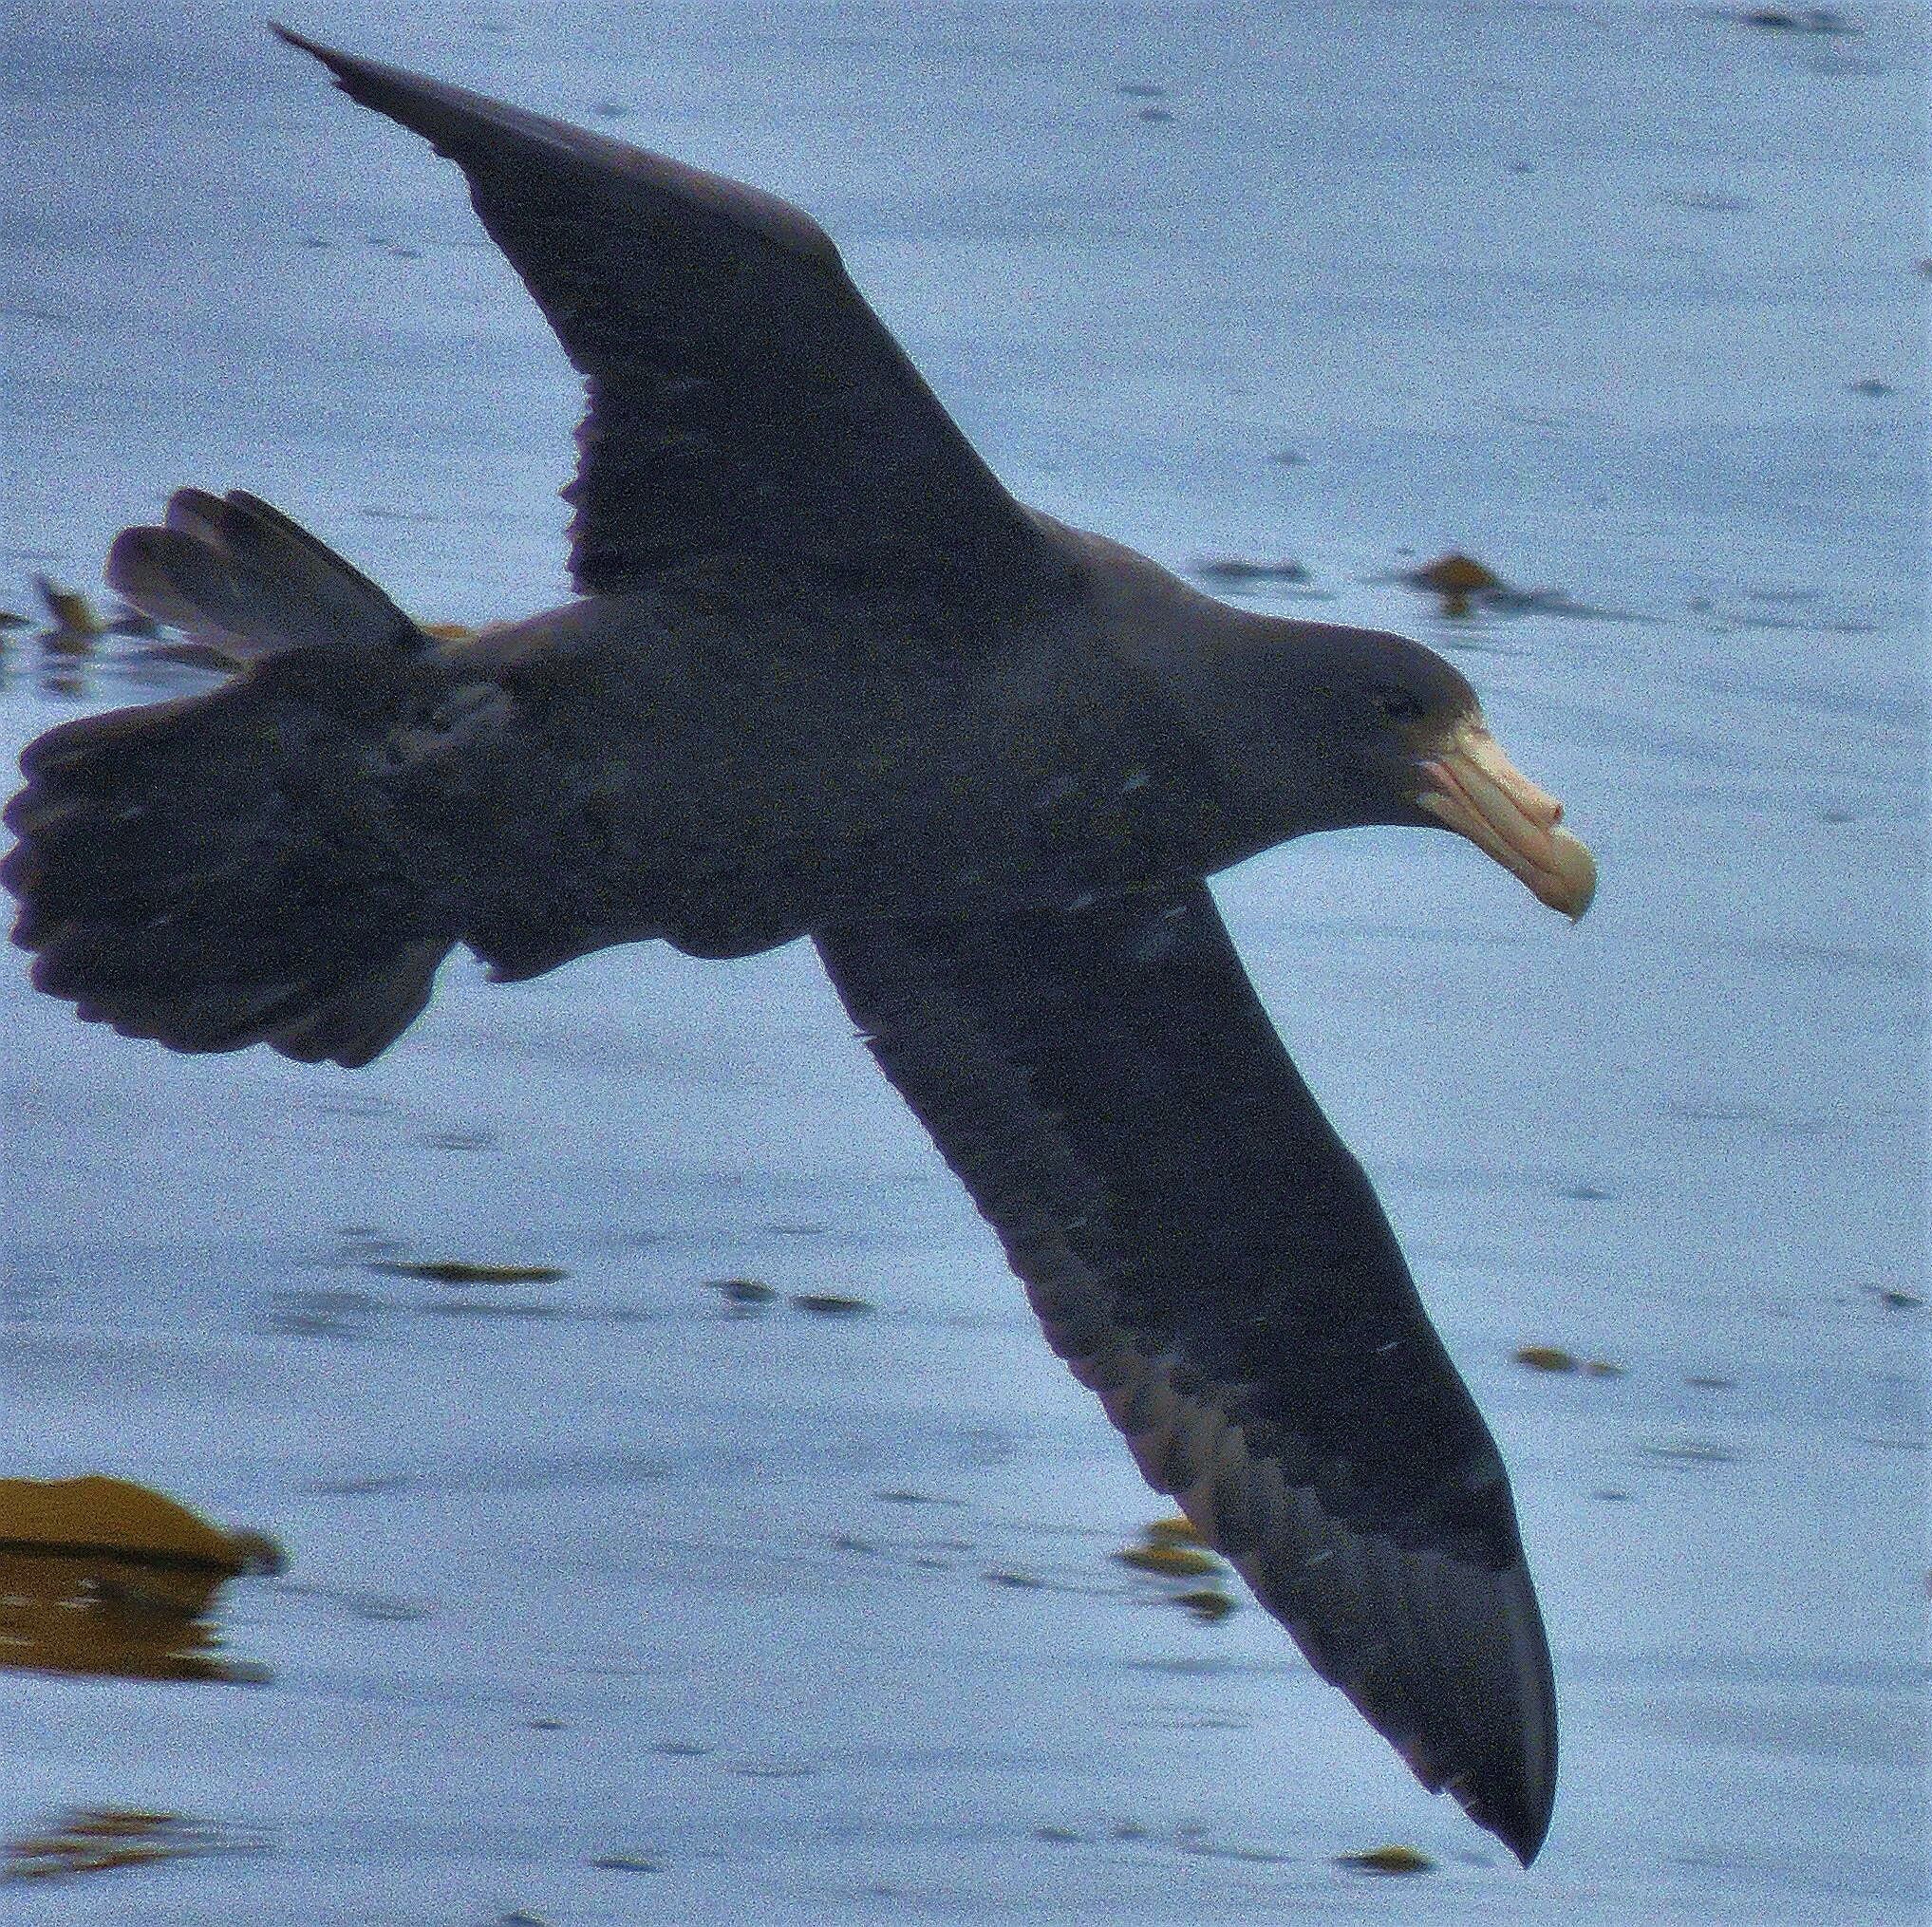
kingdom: Animalia
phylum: Chordata
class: Aves
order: Procellariiformes
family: Procellariidae
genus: Macronectes
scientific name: Macronectes giganteus
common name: Southern giant petrel
